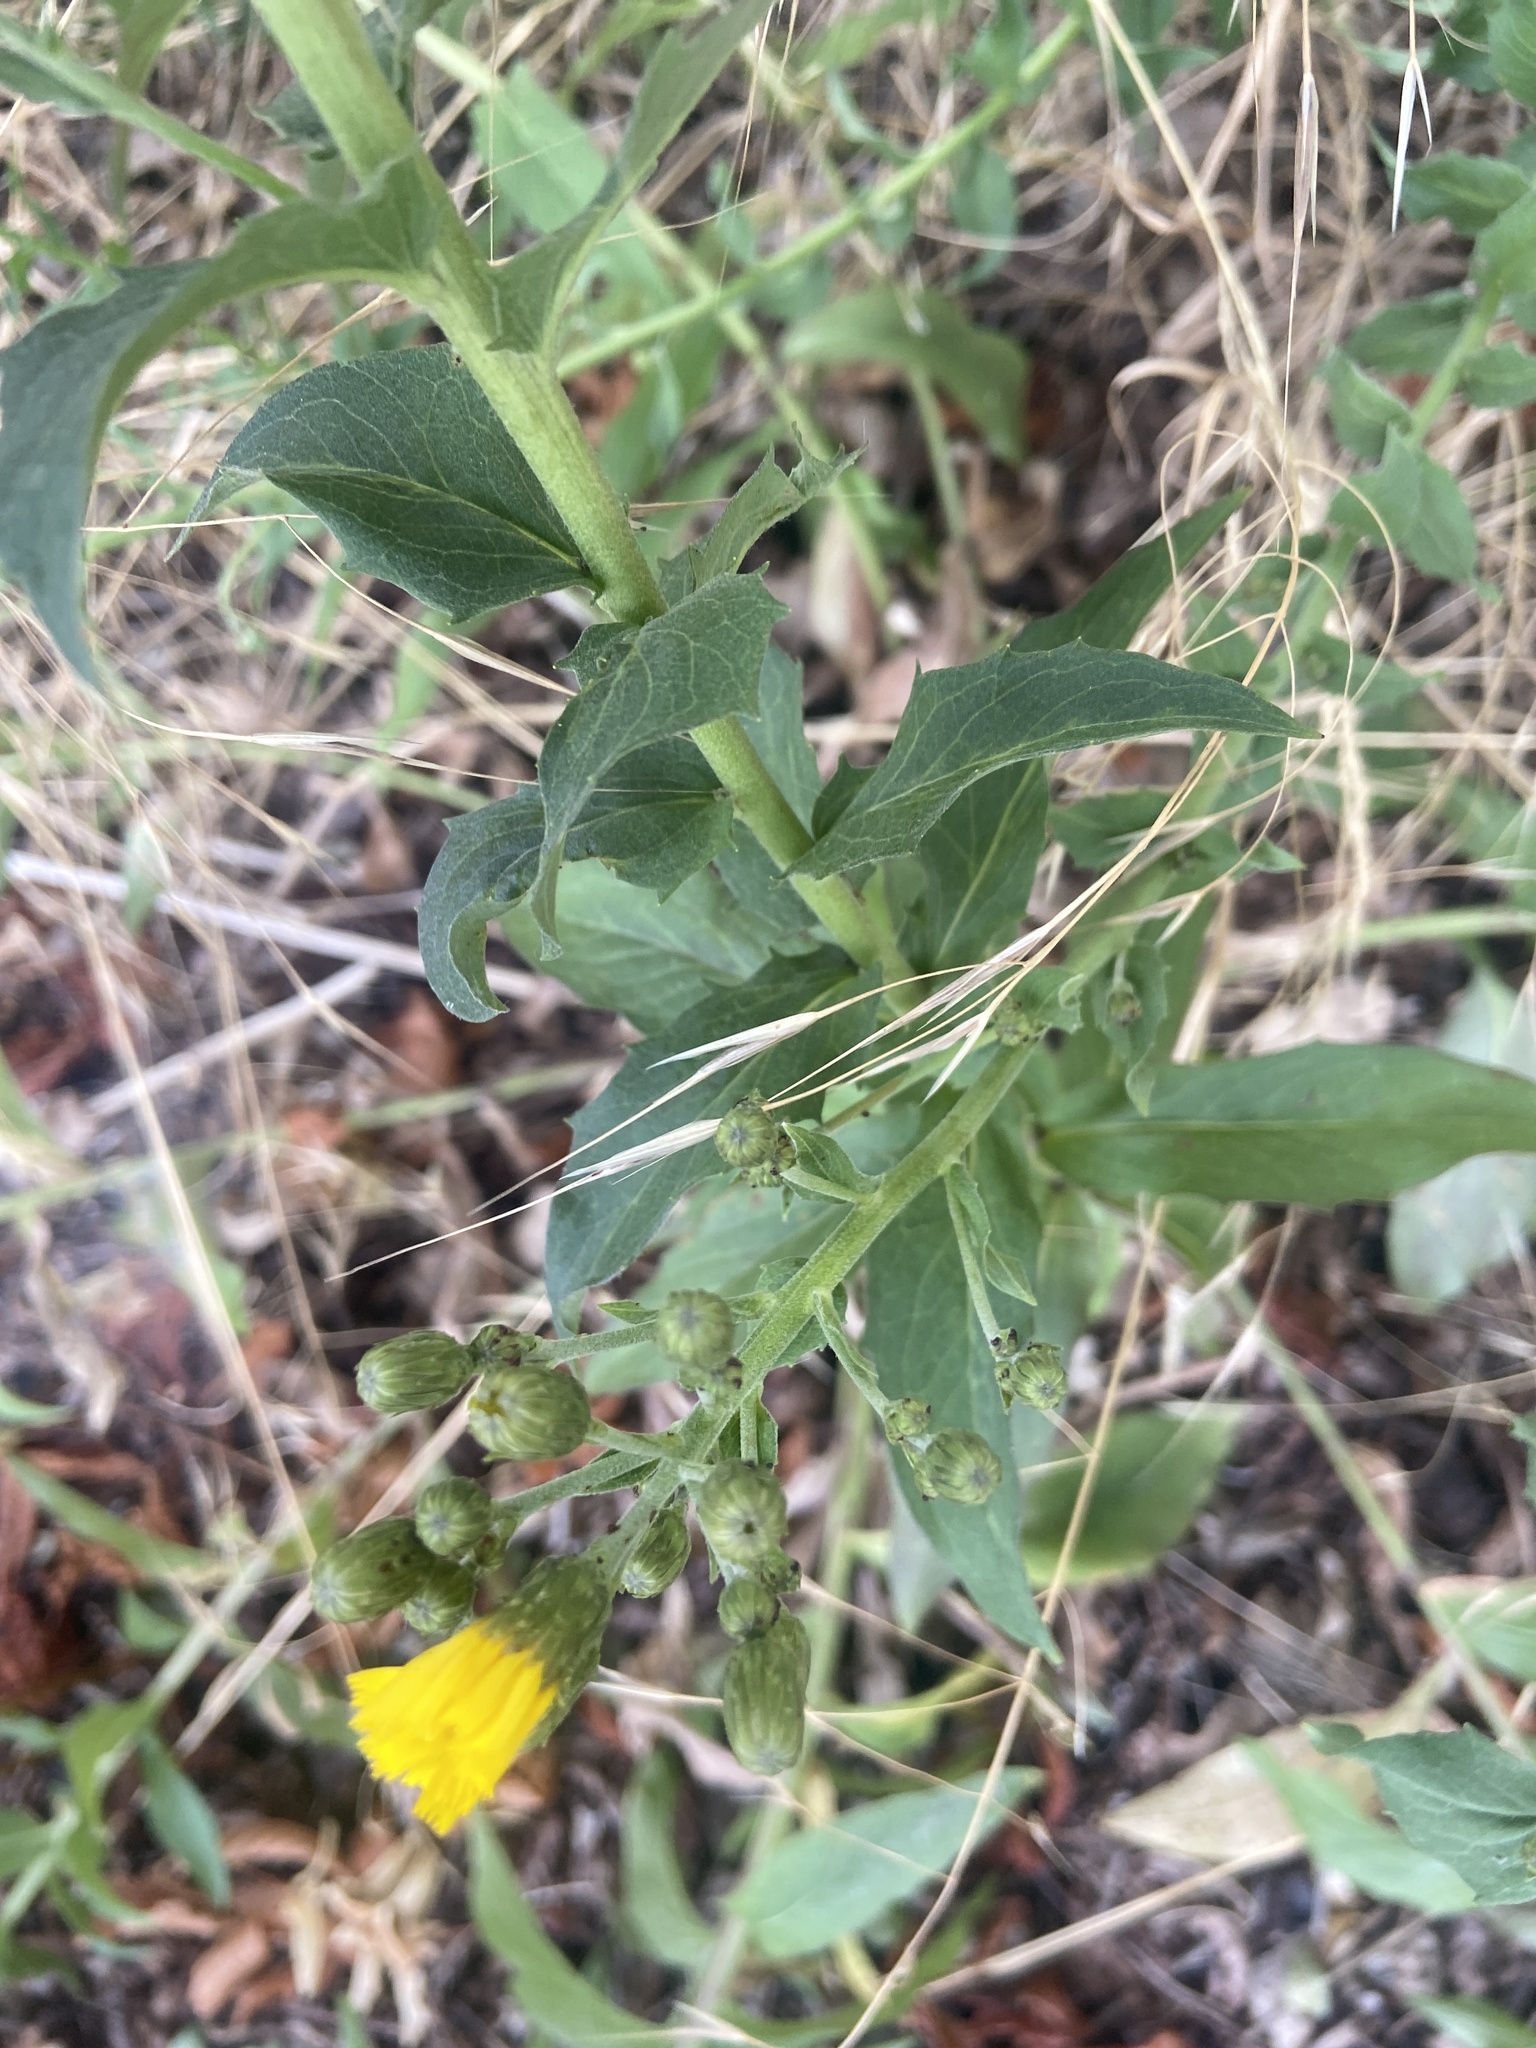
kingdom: Plantae
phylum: Tracheophyta
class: Magnoliopsida
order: Asterales
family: Asteraceae
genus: Hieracium
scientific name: Hieracium sabaudum
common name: New england hawkweed
